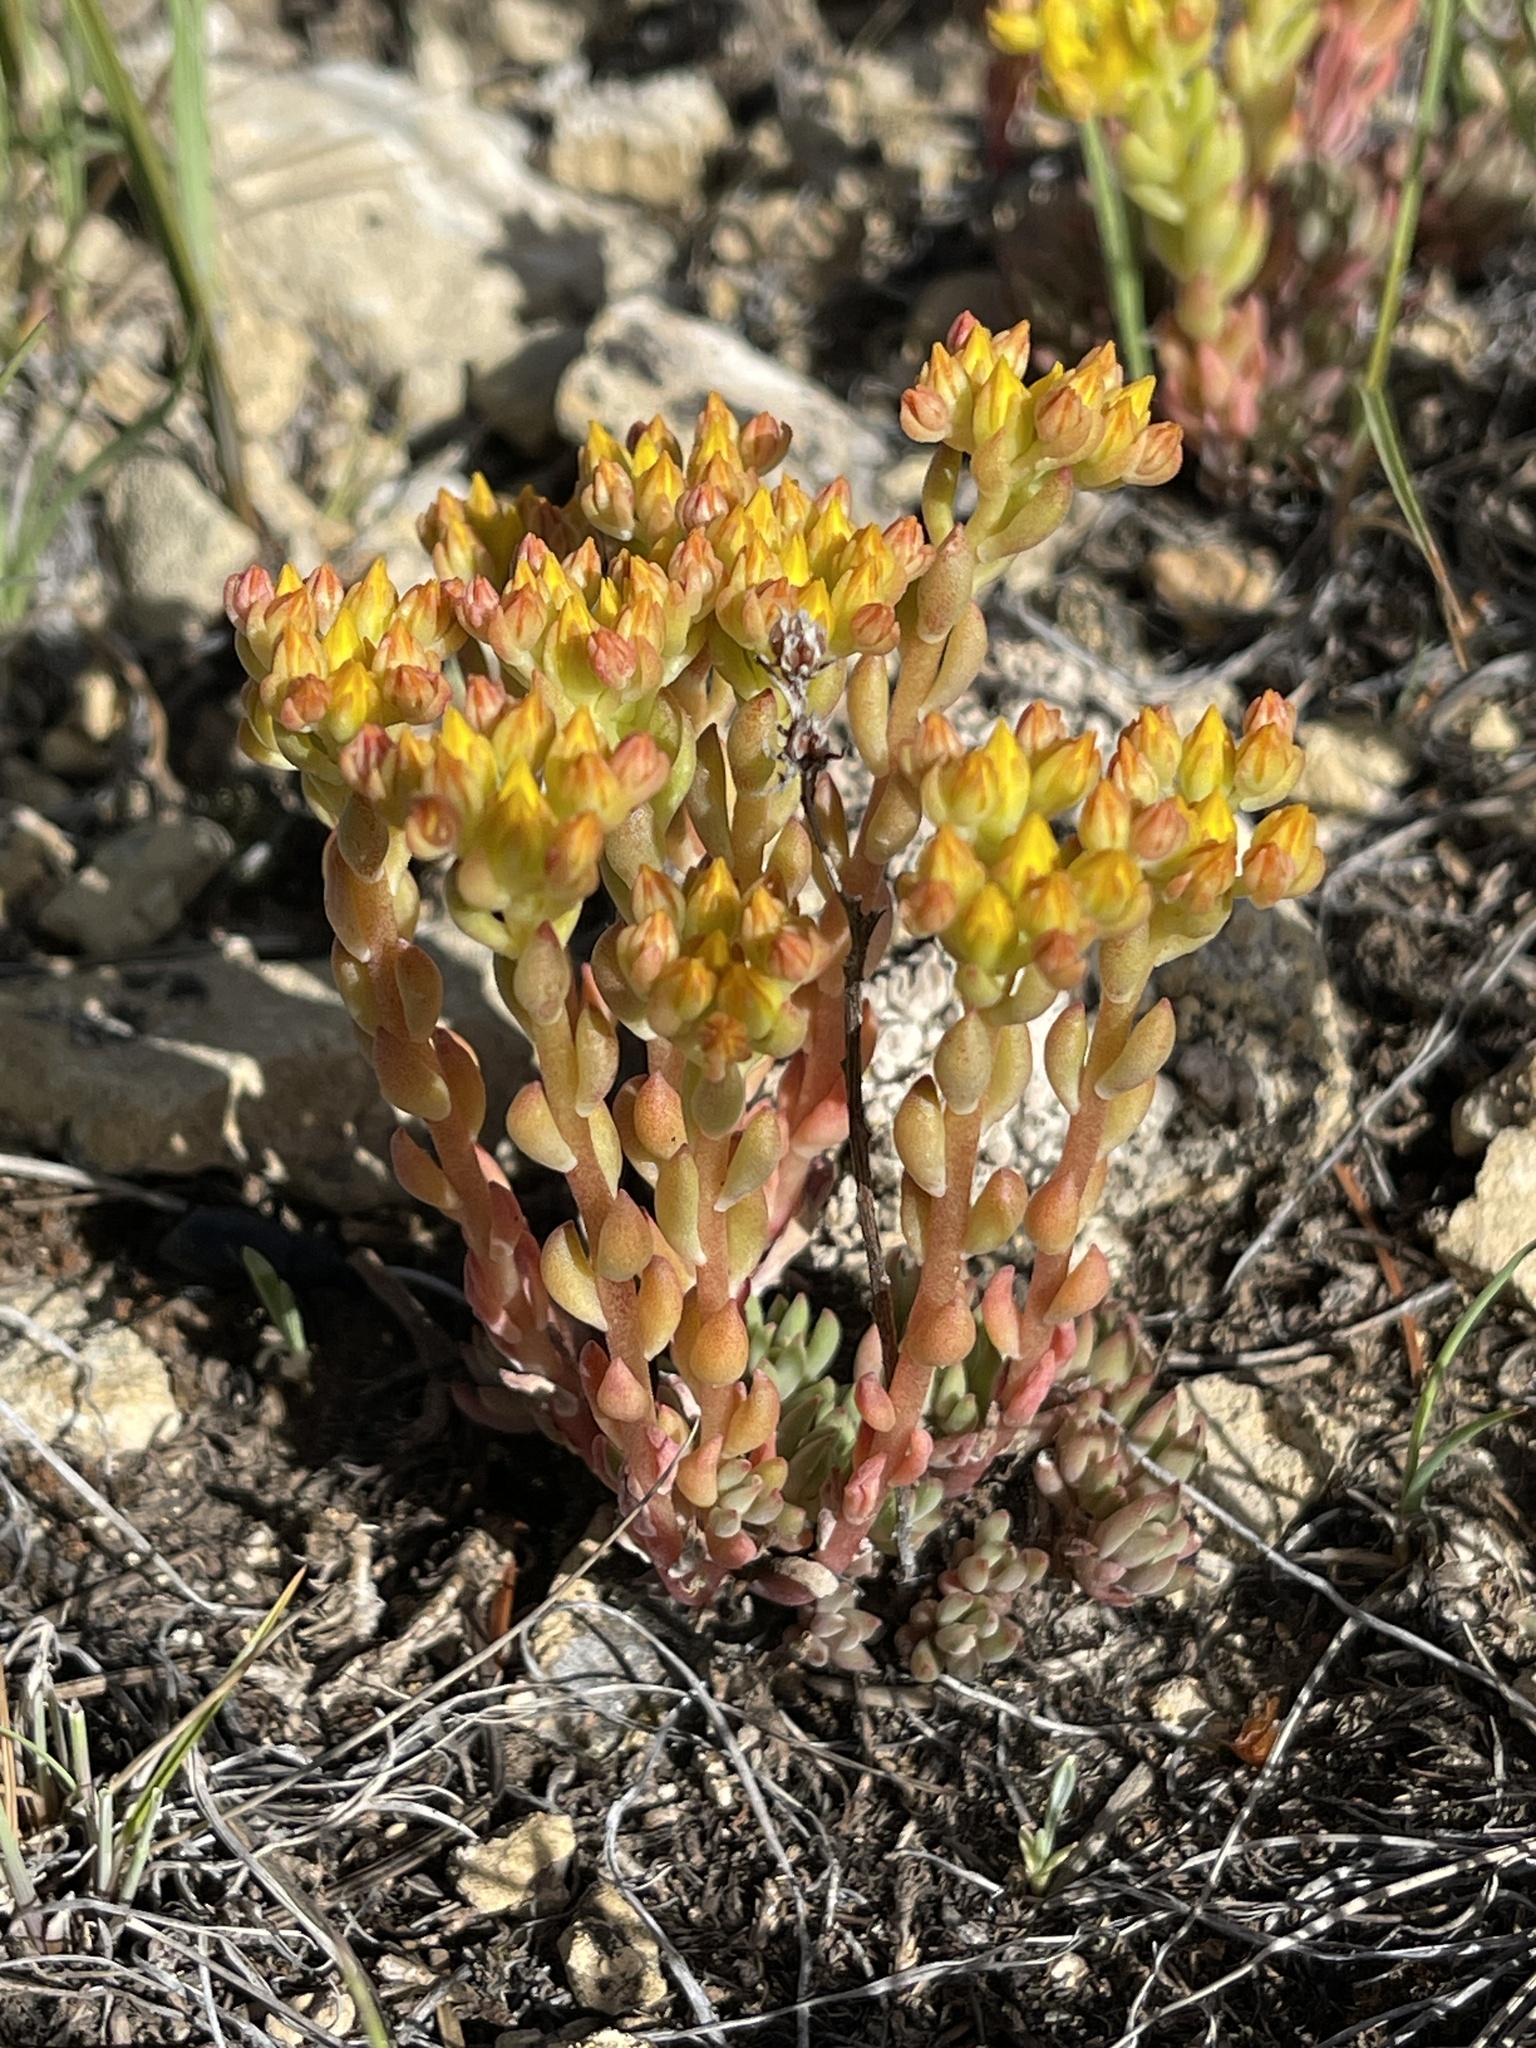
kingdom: Plantae
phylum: Tracheophyta
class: Magnoliopsida
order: Saxifragales
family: Crassulaceae
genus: Sedum
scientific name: Sedum lanceolatum
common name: Common stonecrop
